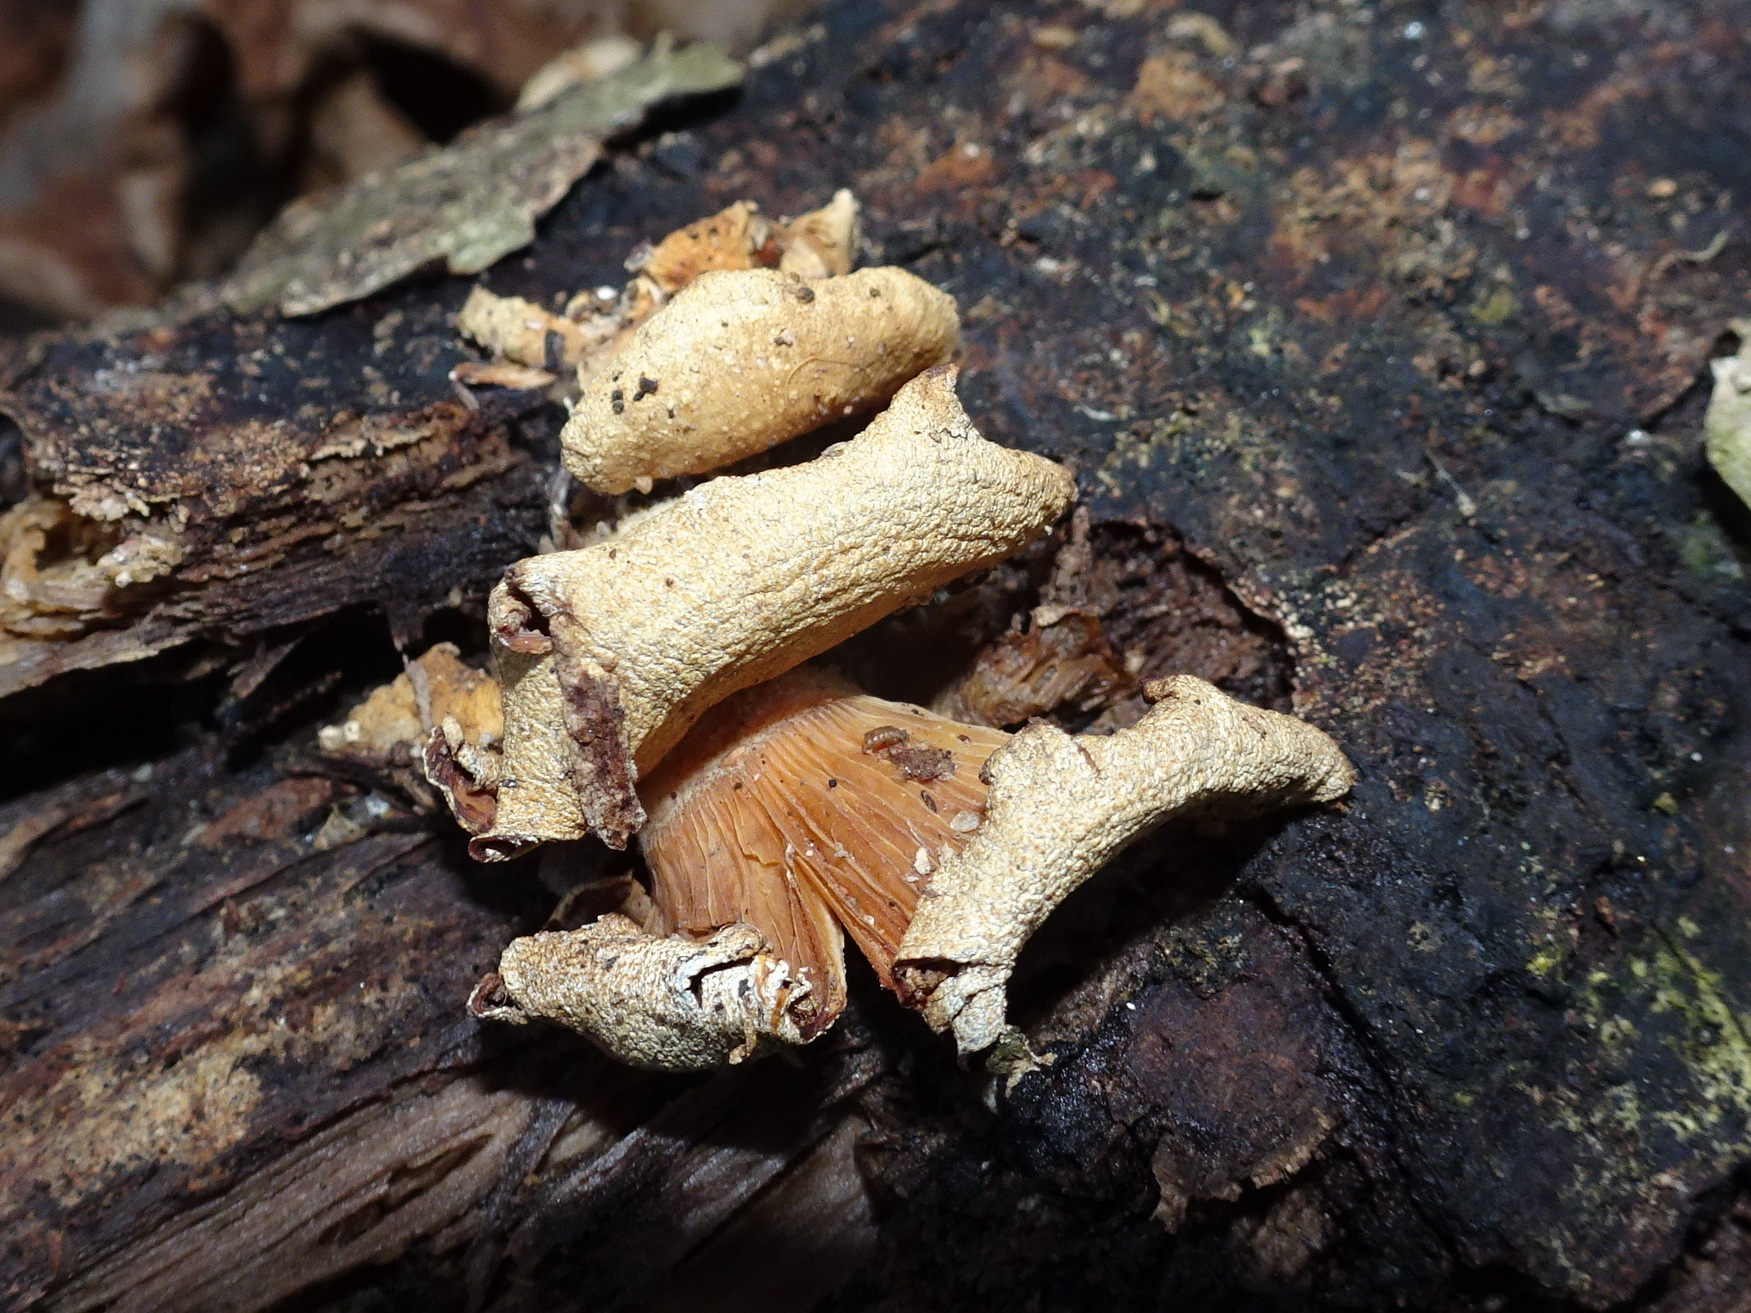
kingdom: Fungi
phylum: Basidiomycota
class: Agaricomycetes
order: Agaricales
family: Mycenaceae
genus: Panellus
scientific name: Panellus stipticus
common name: Bitter oysterling
